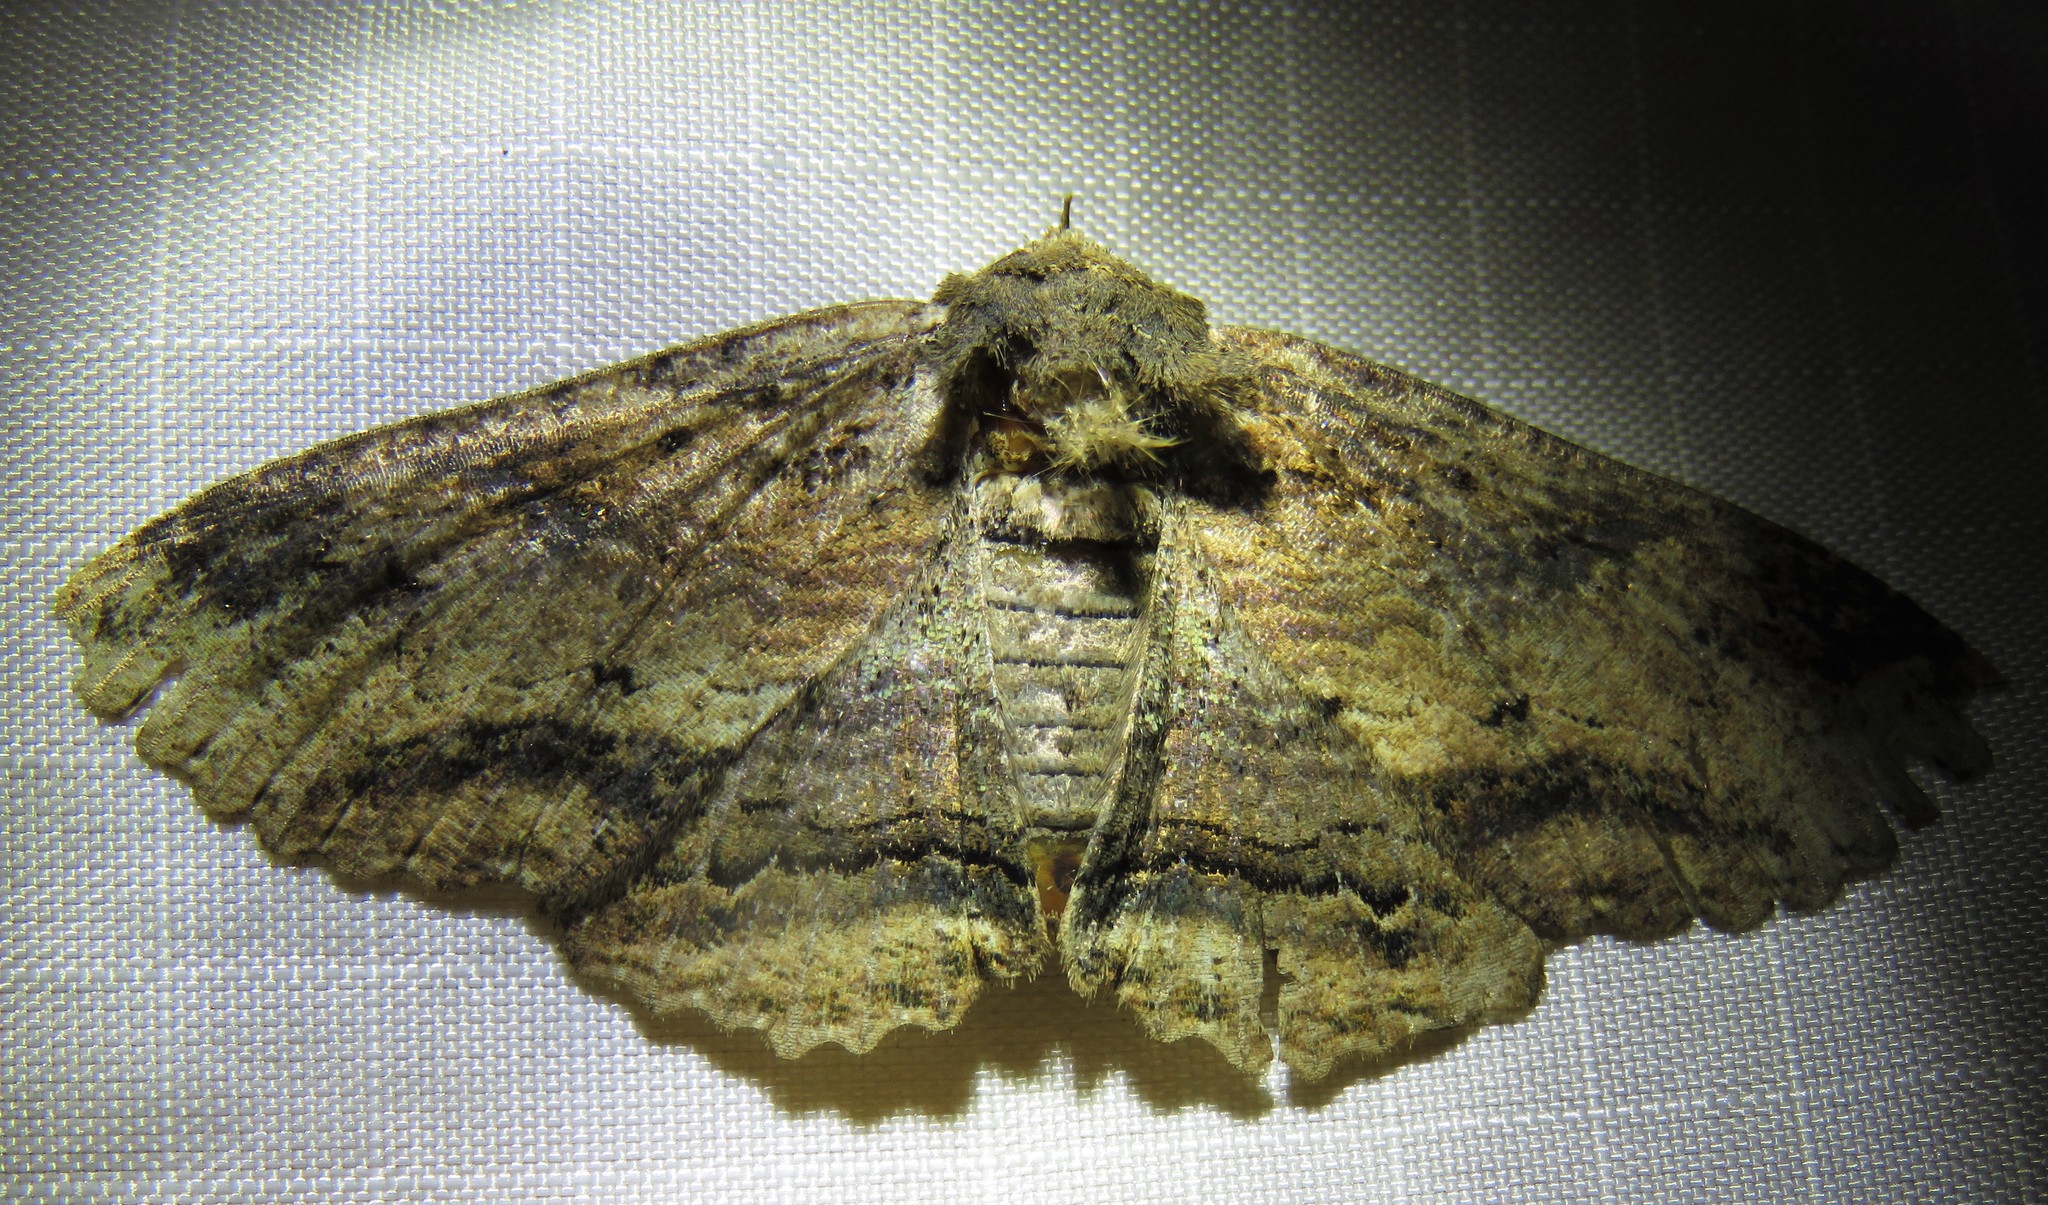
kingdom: Animalia
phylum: Arthropoda
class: Insecta
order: Lepidoptera
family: Erebidae
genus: Zale
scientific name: Zale lunata
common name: Lunate zale moth
